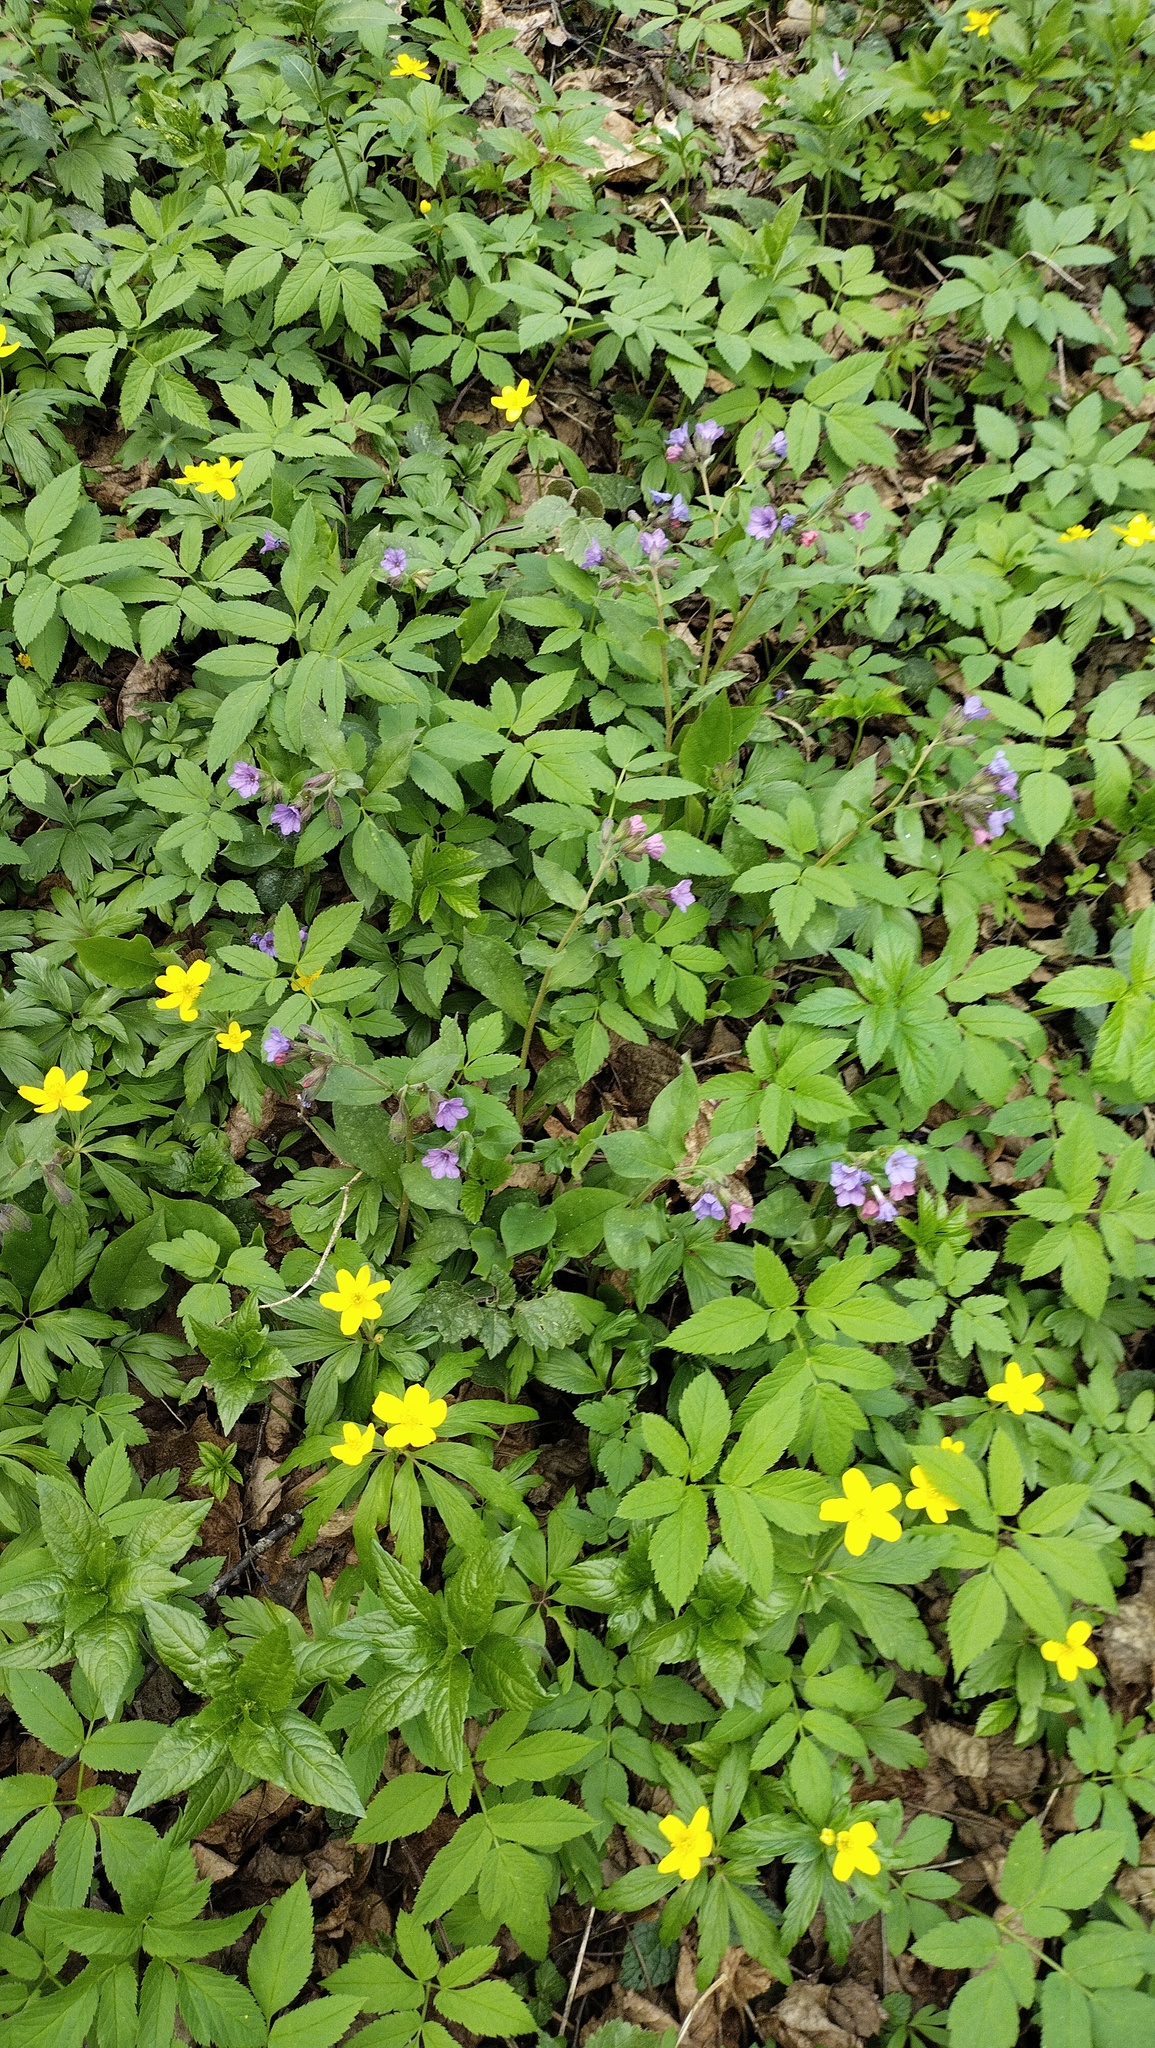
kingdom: Plantae
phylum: Tracheophyta
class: Magnoliopsida
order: Boraginales
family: Boraginaceae
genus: Pulmonaria
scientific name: Pulmonaria obscura
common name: Suffolk lungwort
